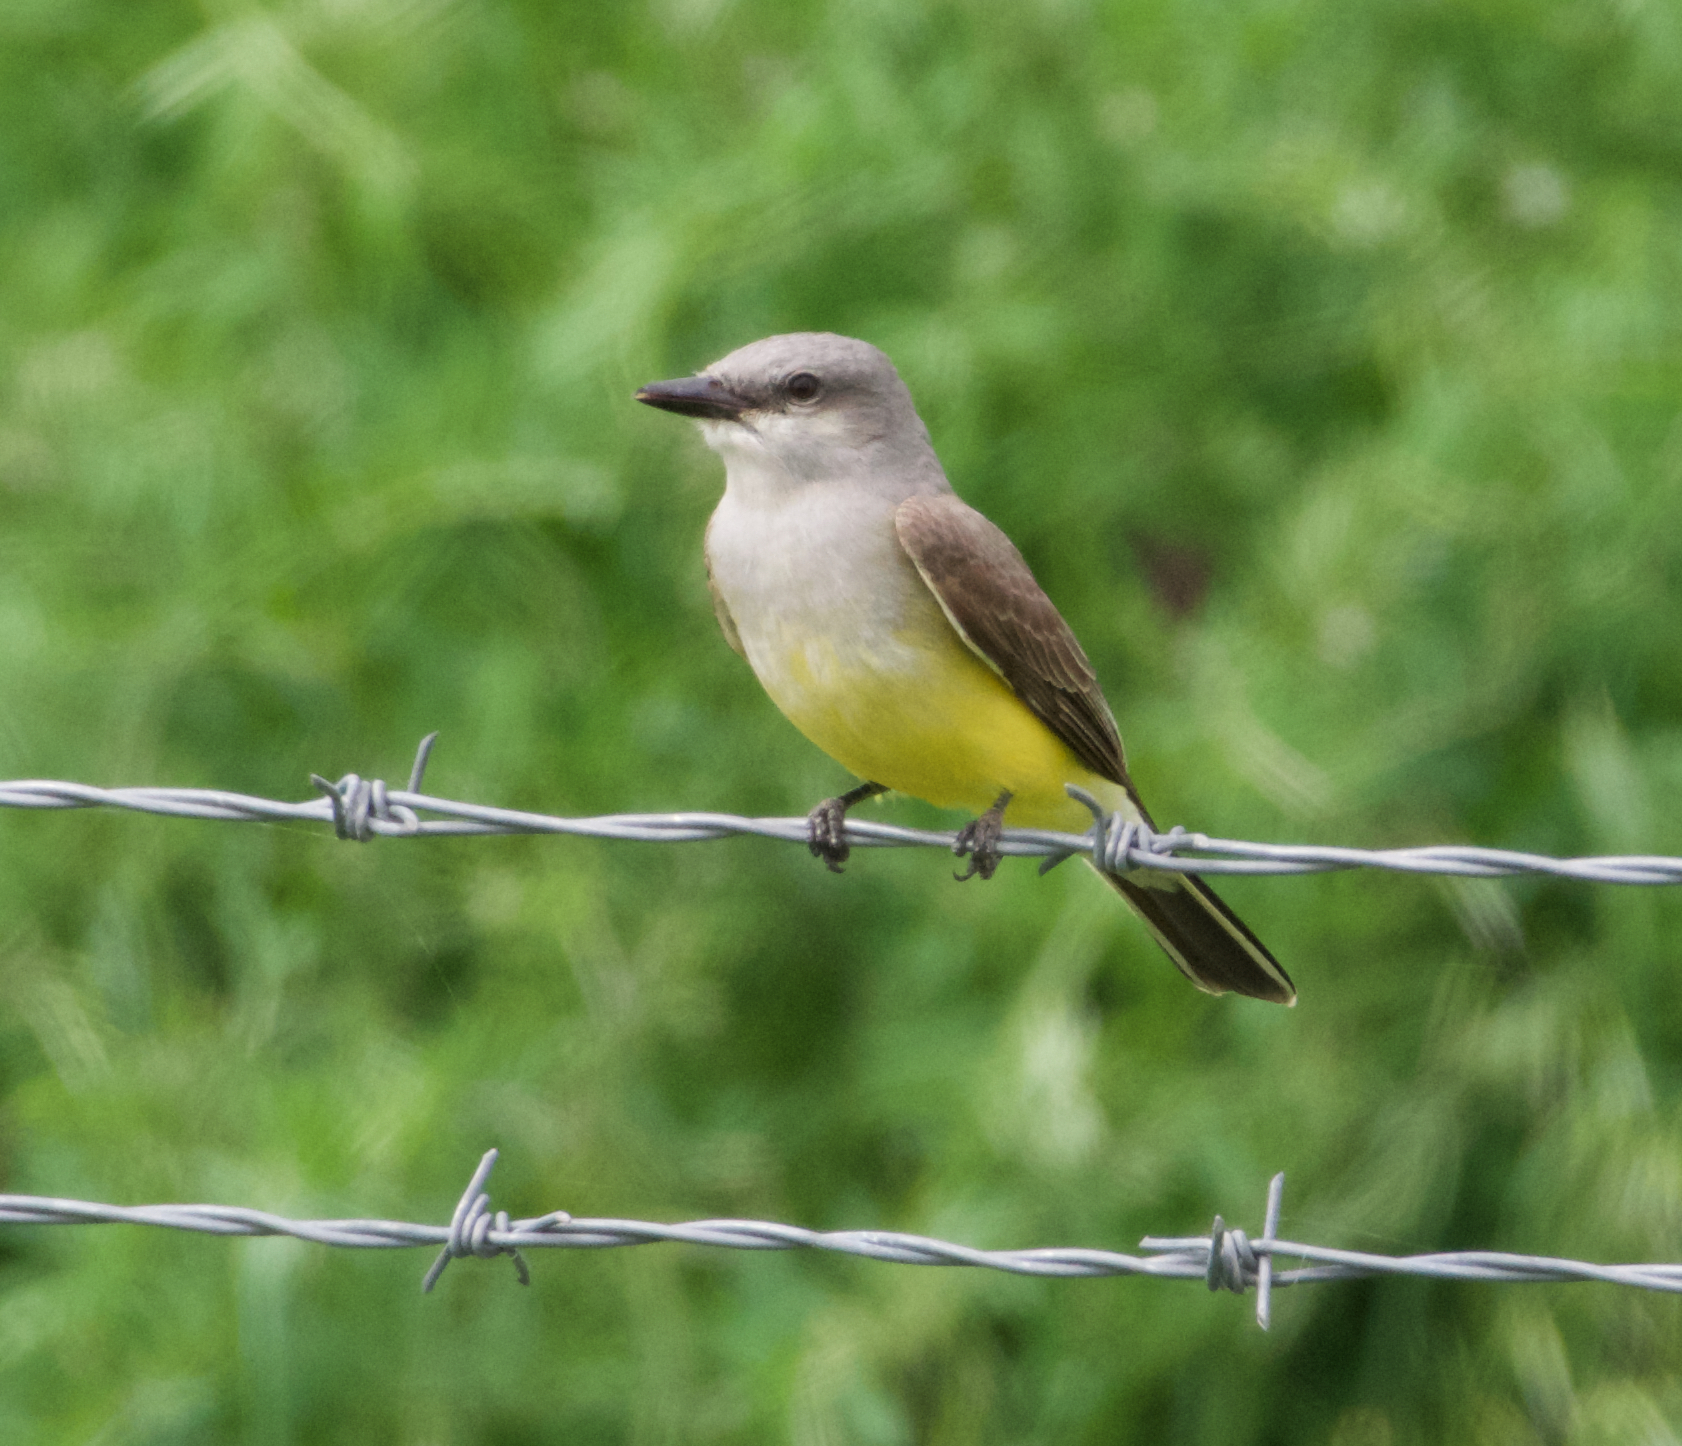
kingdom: Animalia
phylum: Chordata
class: Aves
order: Passeriformes
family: Tyrannidae
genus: Tyrannus
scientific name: Tyrannus verticalis
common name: Western kingbird
